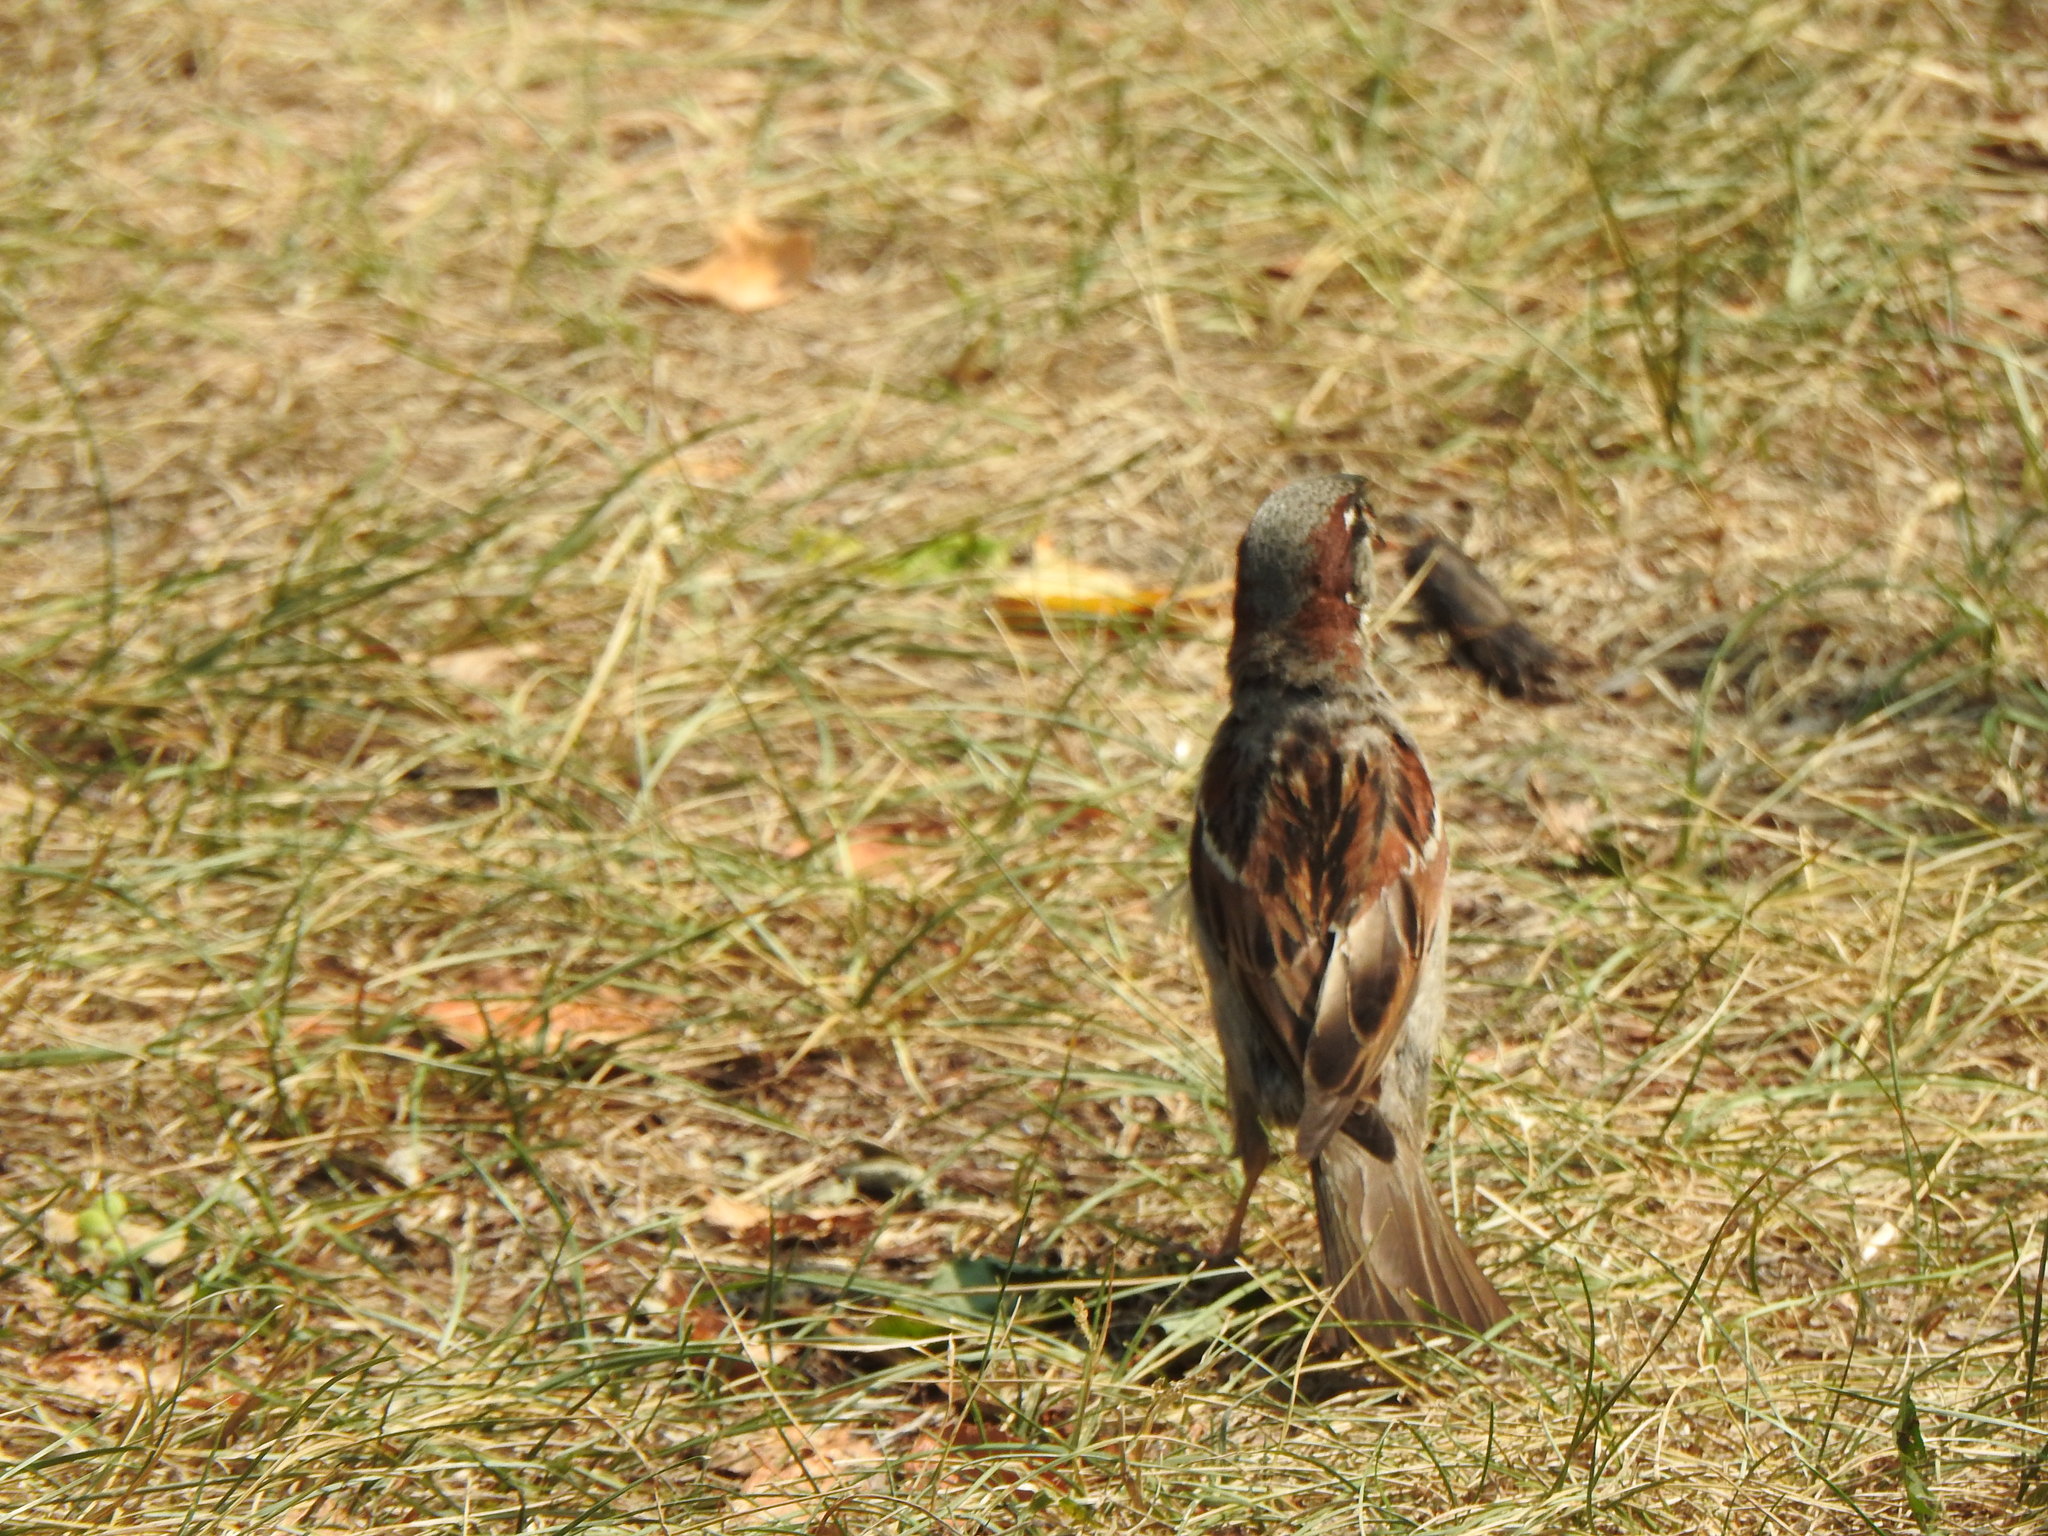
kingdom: Animalia
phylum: Chordata
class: Aves
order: Passeriformes
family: Passeridae
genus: Passer
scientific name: Passer domesticus
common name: House sparrow
